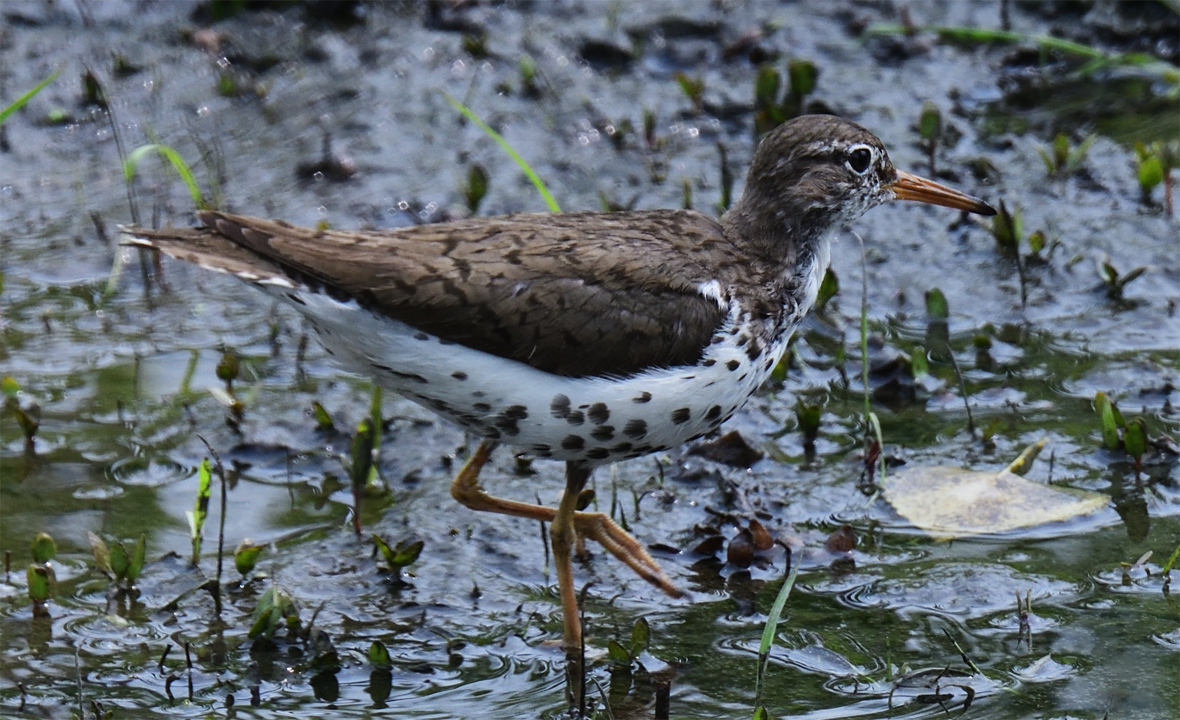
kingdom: Animalia
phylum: Chordata
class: Aves
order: Charadriiformes
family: Scolopacidae
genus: Actitis
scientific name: Actitis macularius
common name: Spotted sandpiper
